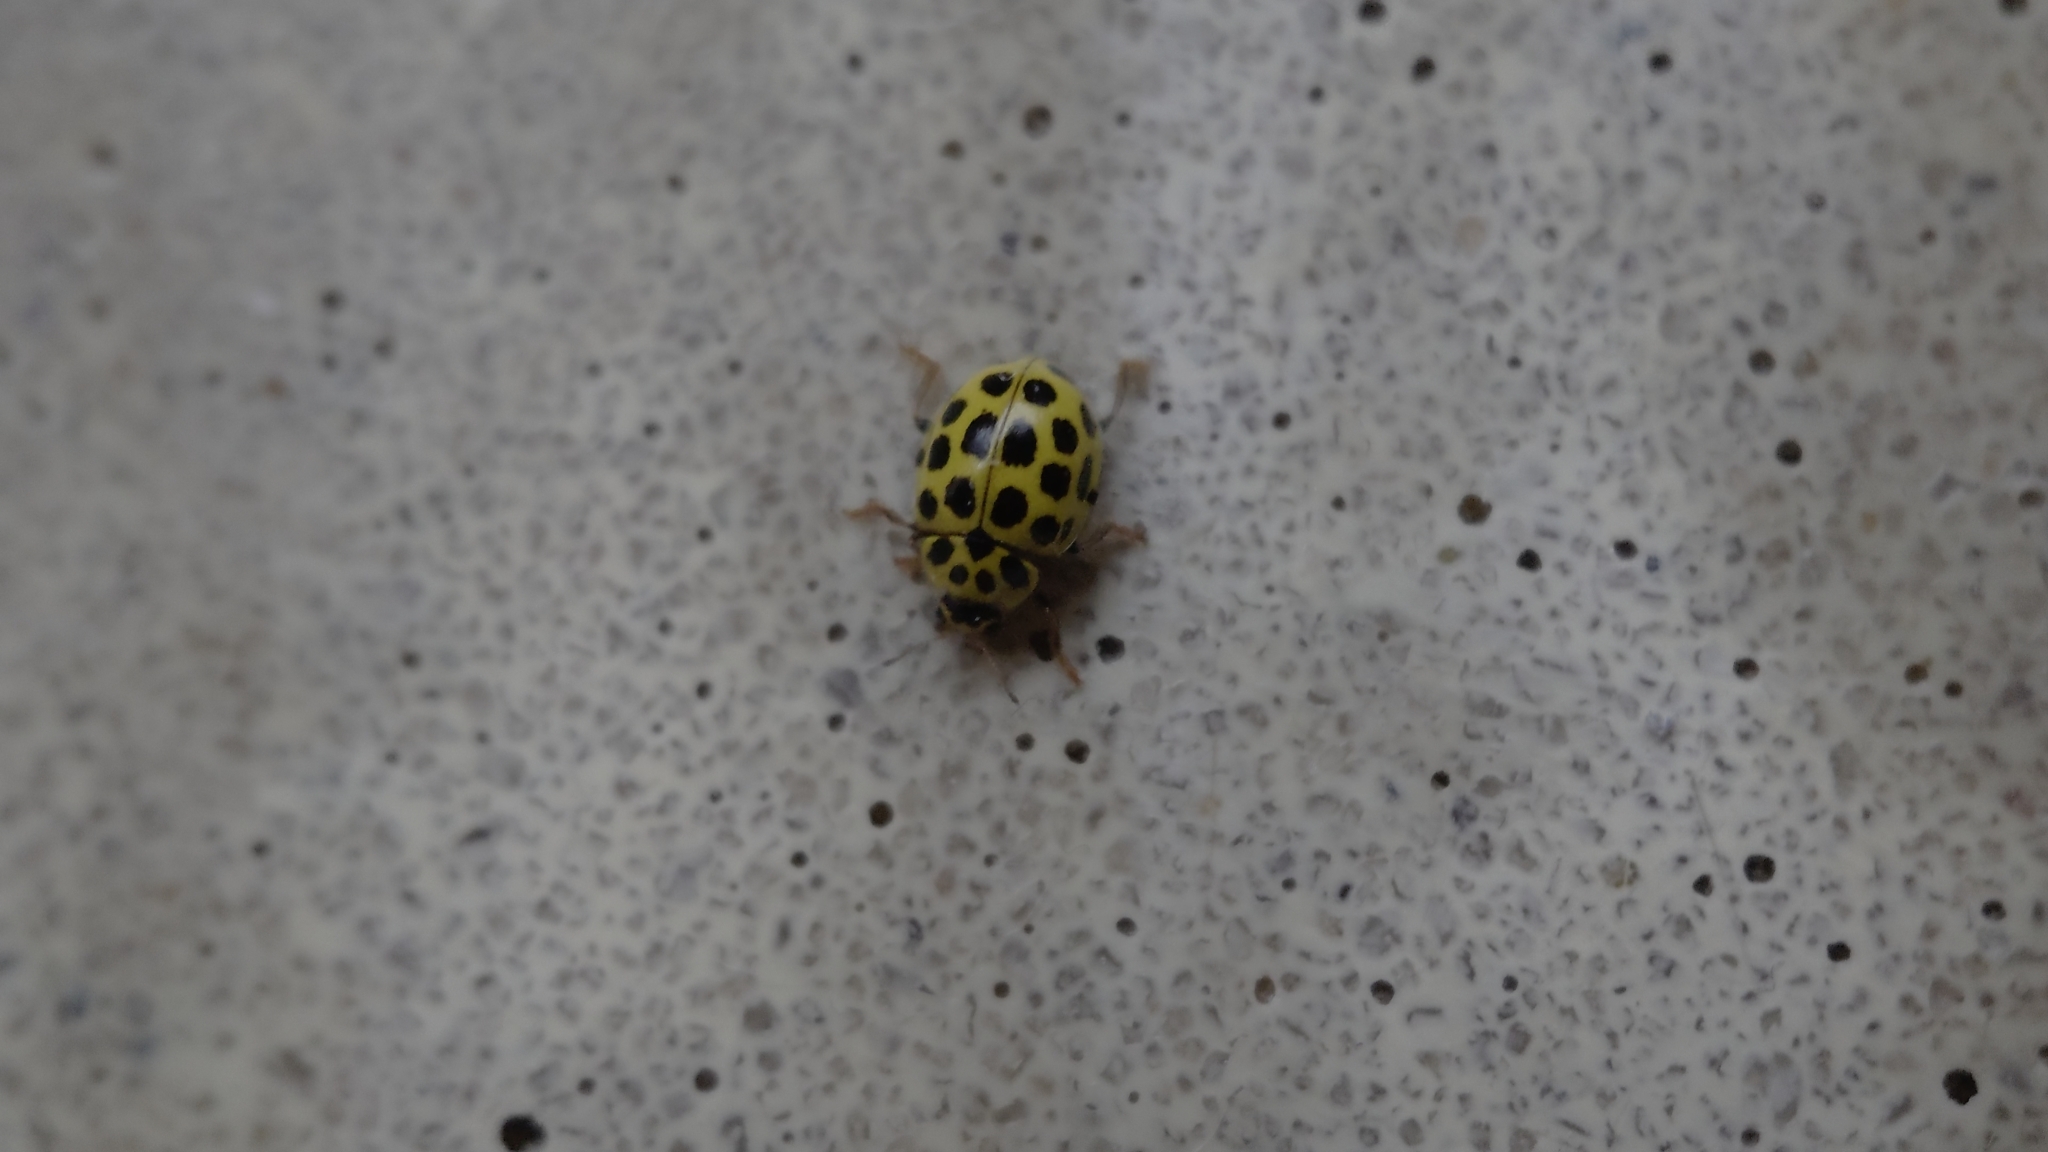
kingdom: Animalia
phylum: Arthropoda
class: Insecta
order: Coleoptera
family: Coccinellidae
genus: Psyllobora
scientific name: Psyllobora vigintiduopunctata
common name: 22-spot ladybird
